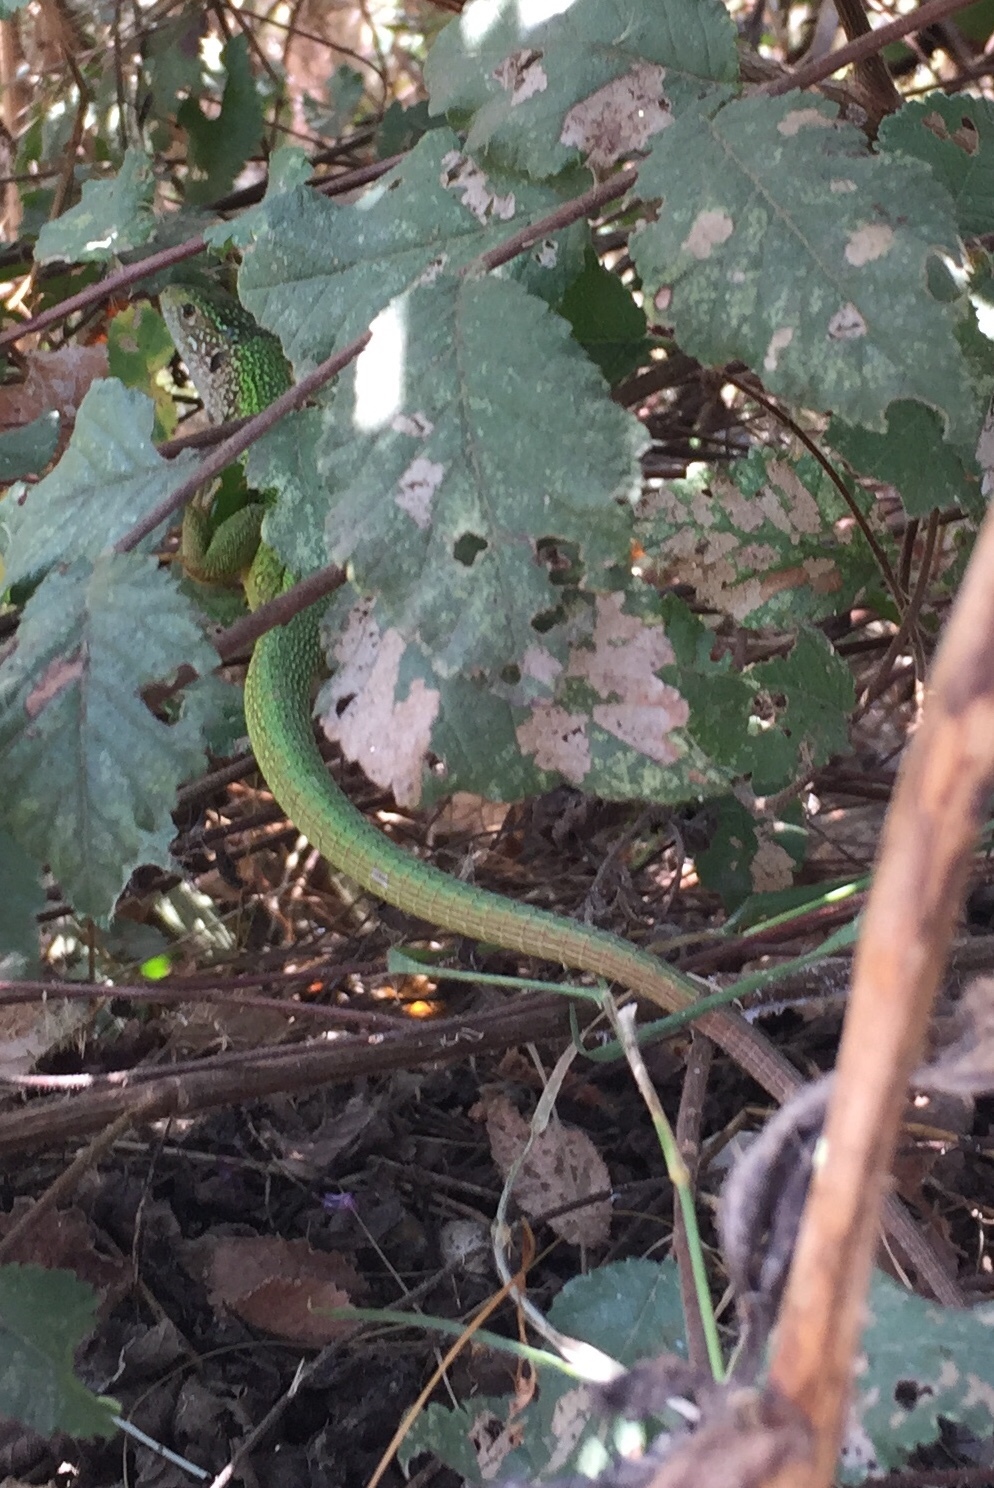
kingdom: Animalia
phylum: Chordata
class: Squamata
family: Lacertidae
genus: Lacerta
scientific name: Lacerta viridis
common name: European green lizard
